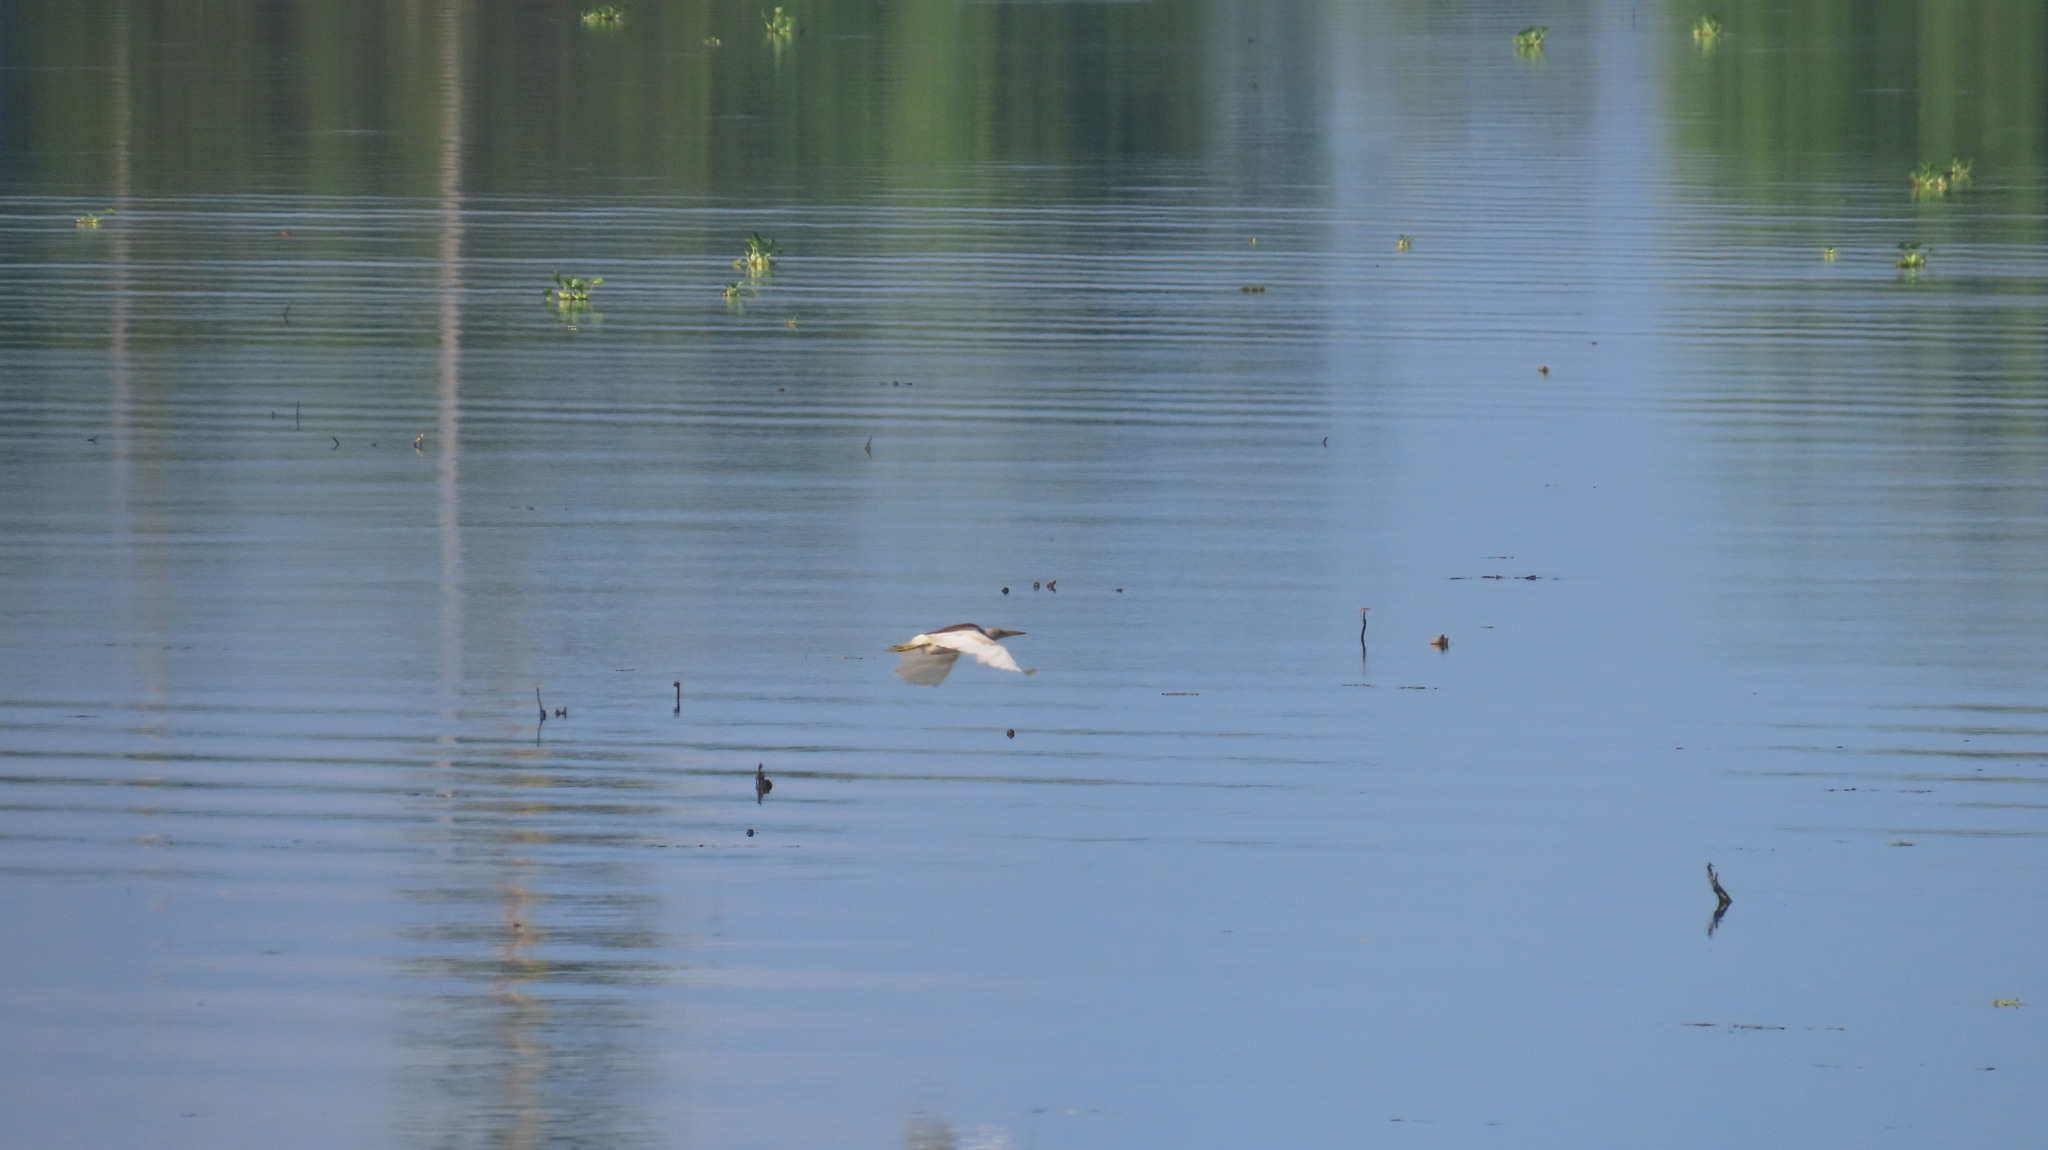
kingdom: Animalia
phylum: Chordata
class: Aves
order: Pelecaniformes
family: Ardeidae
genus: Ardeola
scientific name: Ardeola grayii
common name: Indian pond heron
